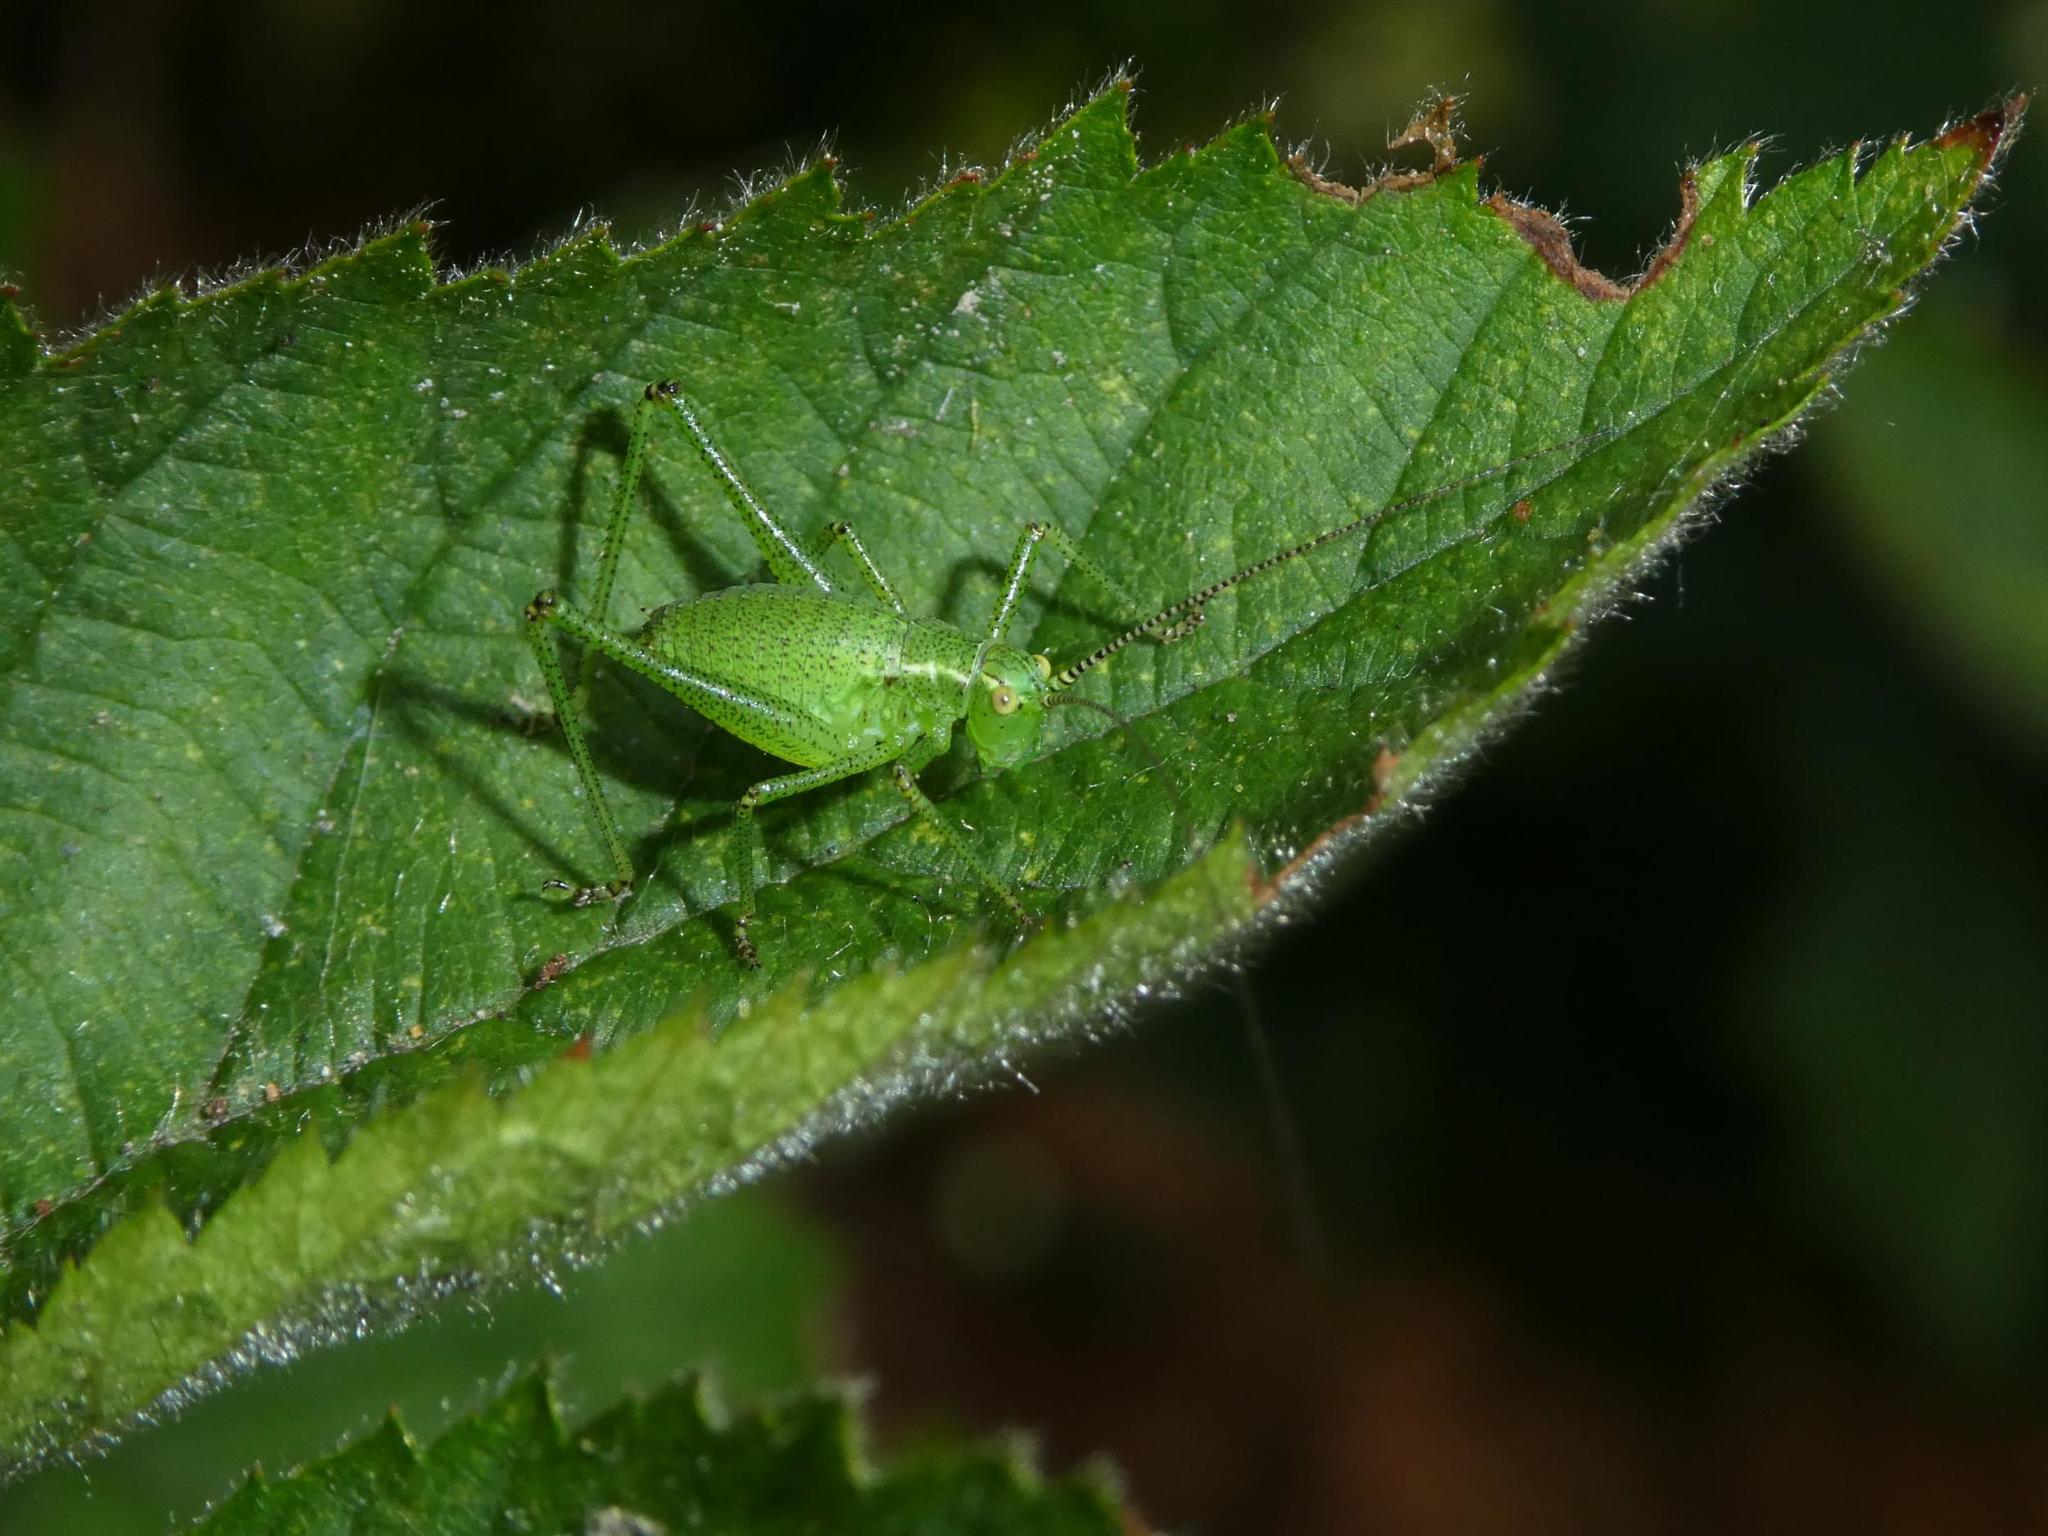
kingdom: Animalia
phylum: Arthropoda
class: Insecta
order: Orthoptera
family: Tettigoniidae
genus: Leptophyes
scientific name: Leptophyes punctatissima
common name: Speckled bush-cricket
